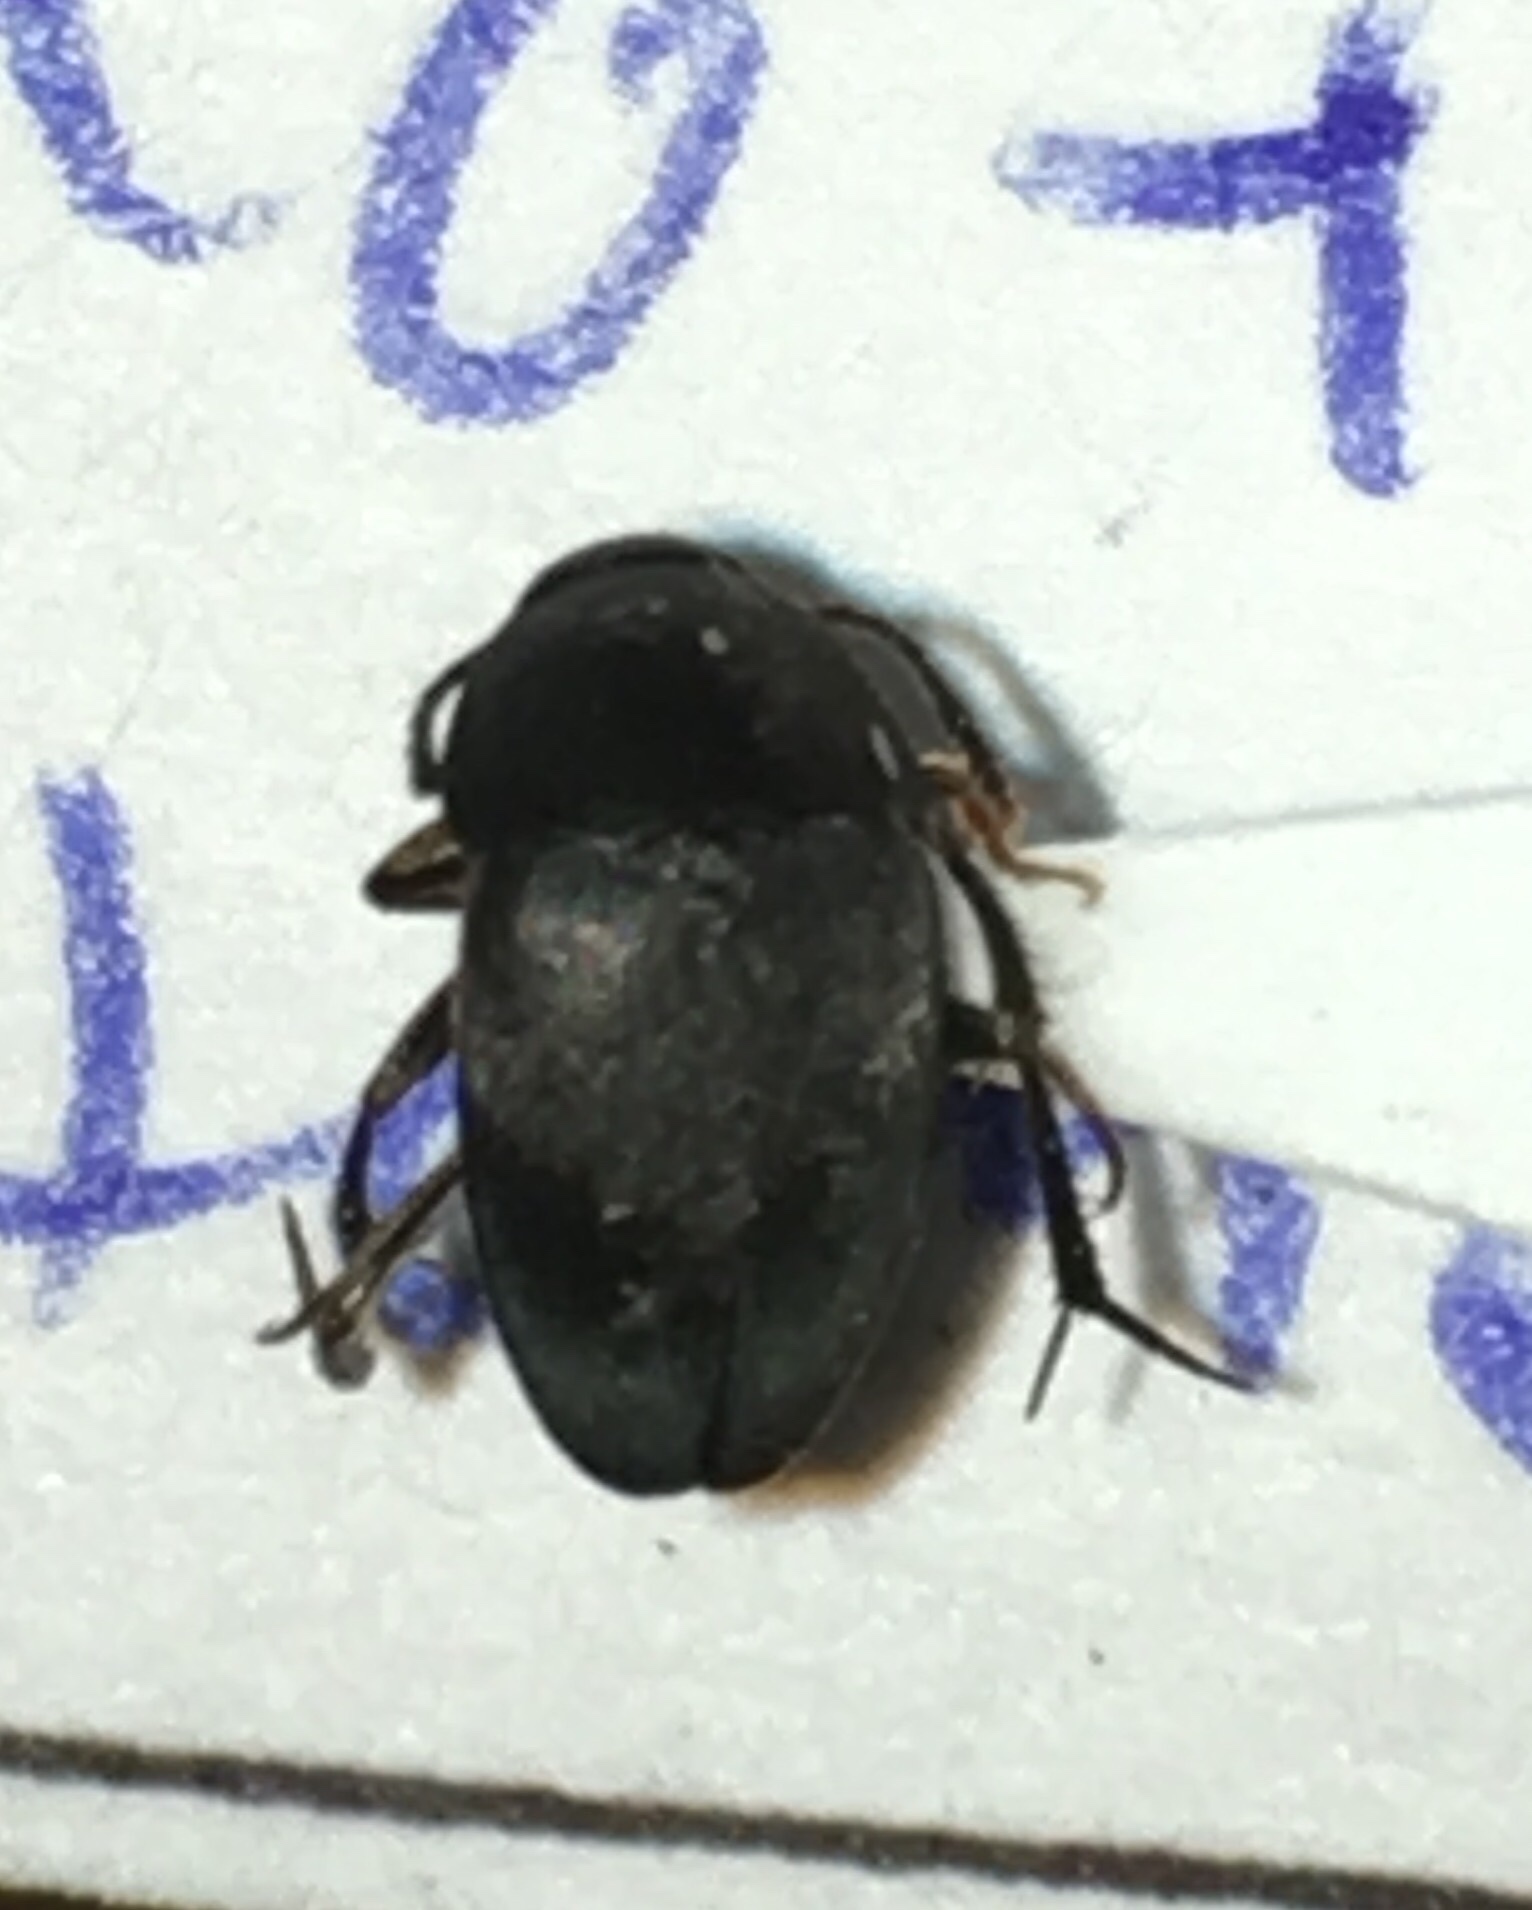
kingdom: Animalia
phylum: Arthropoda
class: Insecta
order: Coleoptera
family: Leiodidae
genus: Prionochaeta
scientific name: Prionochaeta opaca
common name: Small carrion beetle
